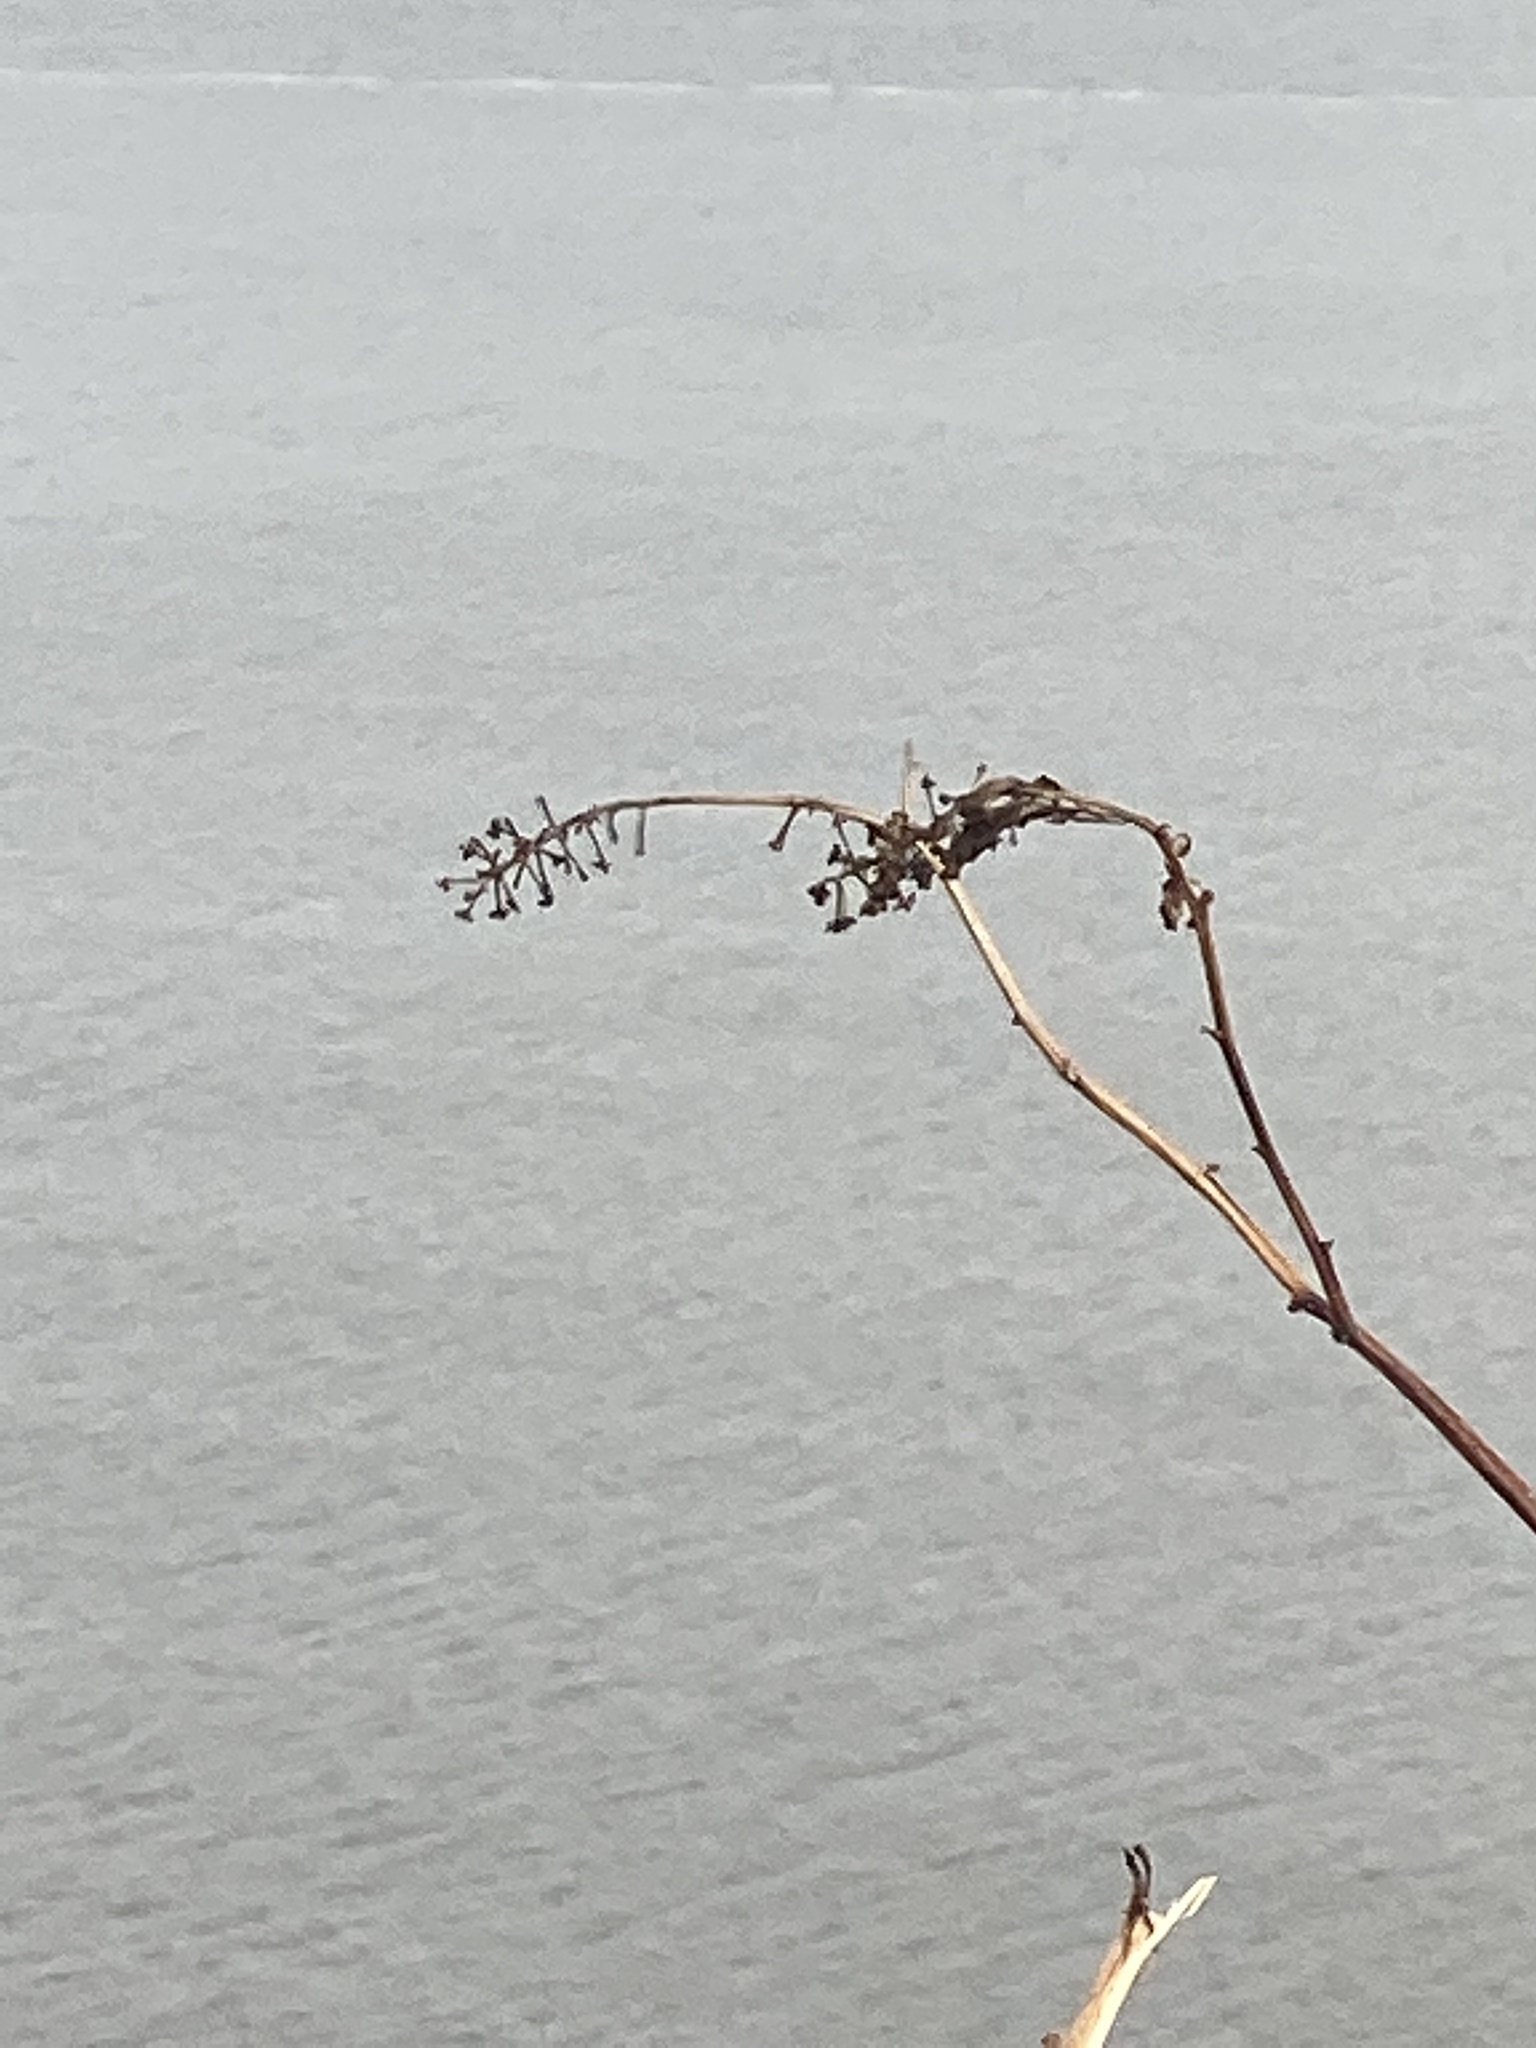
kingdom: Plantae
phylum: Tracheophyta
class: Magnoliopsida
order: Caryophyllales
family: Phytolaccaceae
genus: Phytolacca
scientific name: Phytolacca americana
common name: American pokeweed
